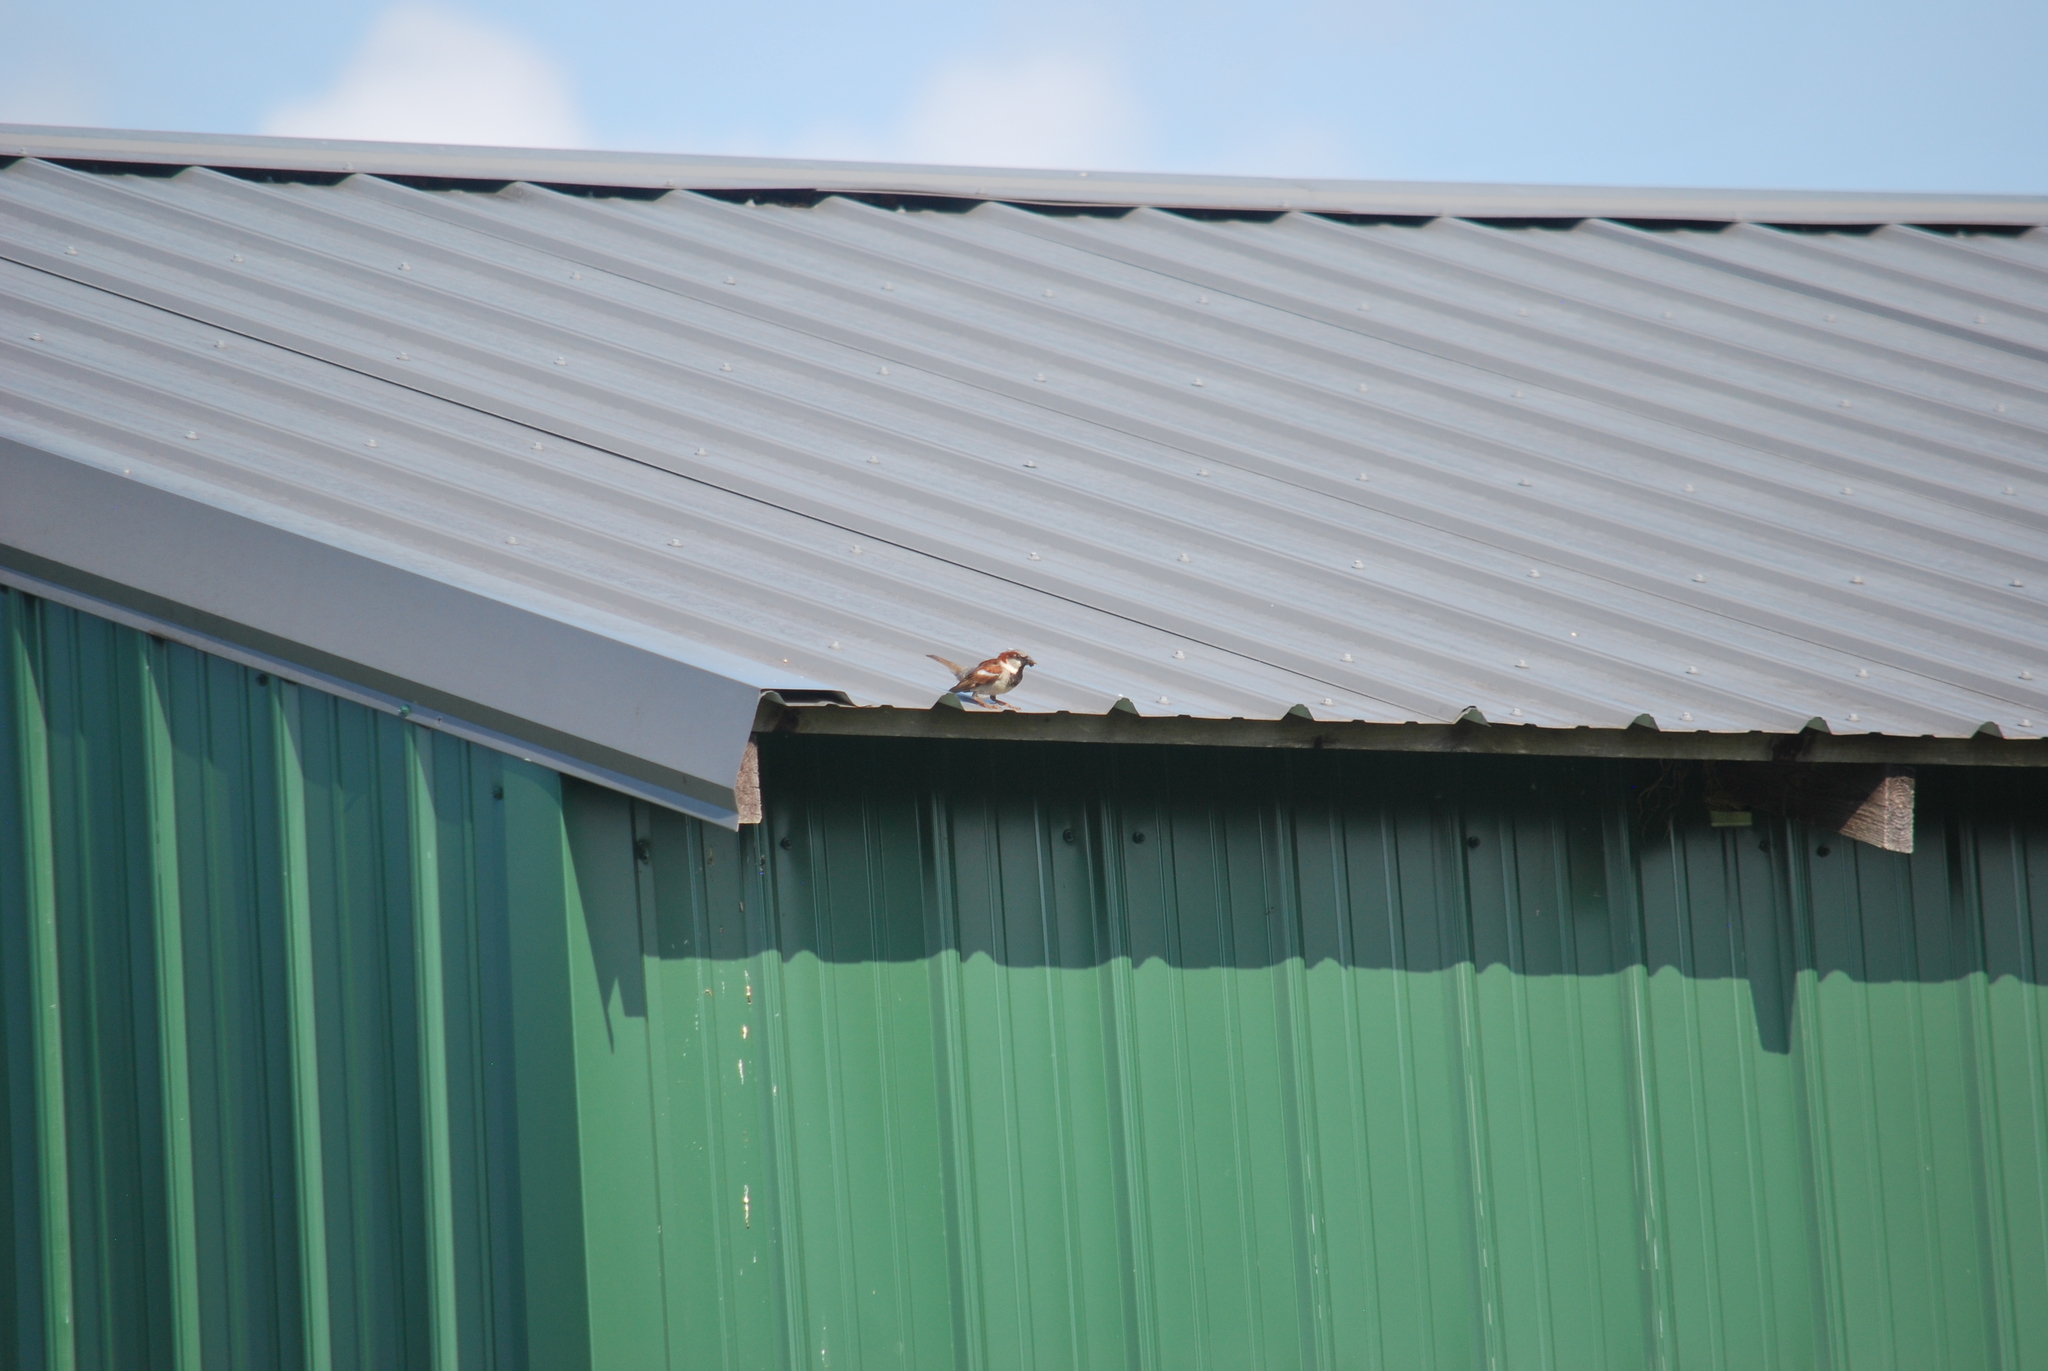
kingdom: Animalia
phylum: Chordata
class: Aves
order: Passeriformes
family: Passeridae
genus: Passer
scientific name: Passer domesticus
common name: House sparrow
